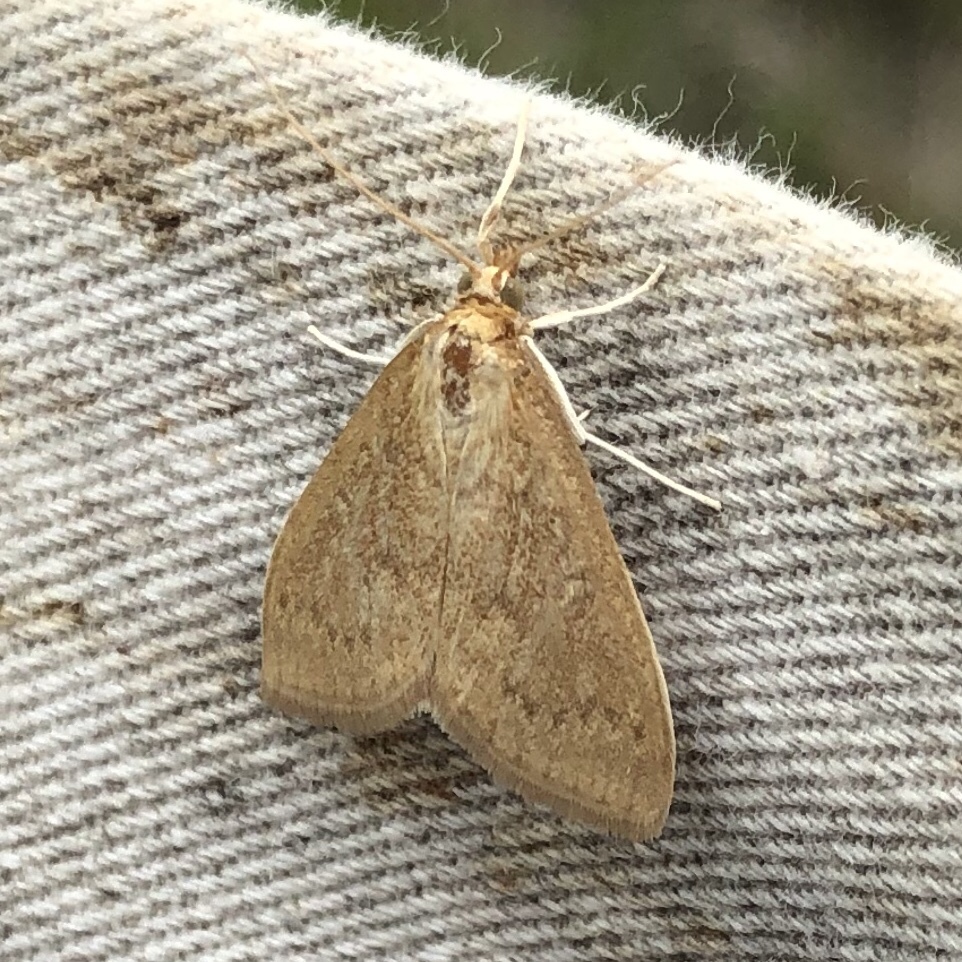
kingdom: Animalia
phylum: Arthropoda
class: Insecta
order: Lepidoptera
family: Crambidae
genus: Udea
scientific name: Udea rubigalis
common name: Celery leaftier moth
